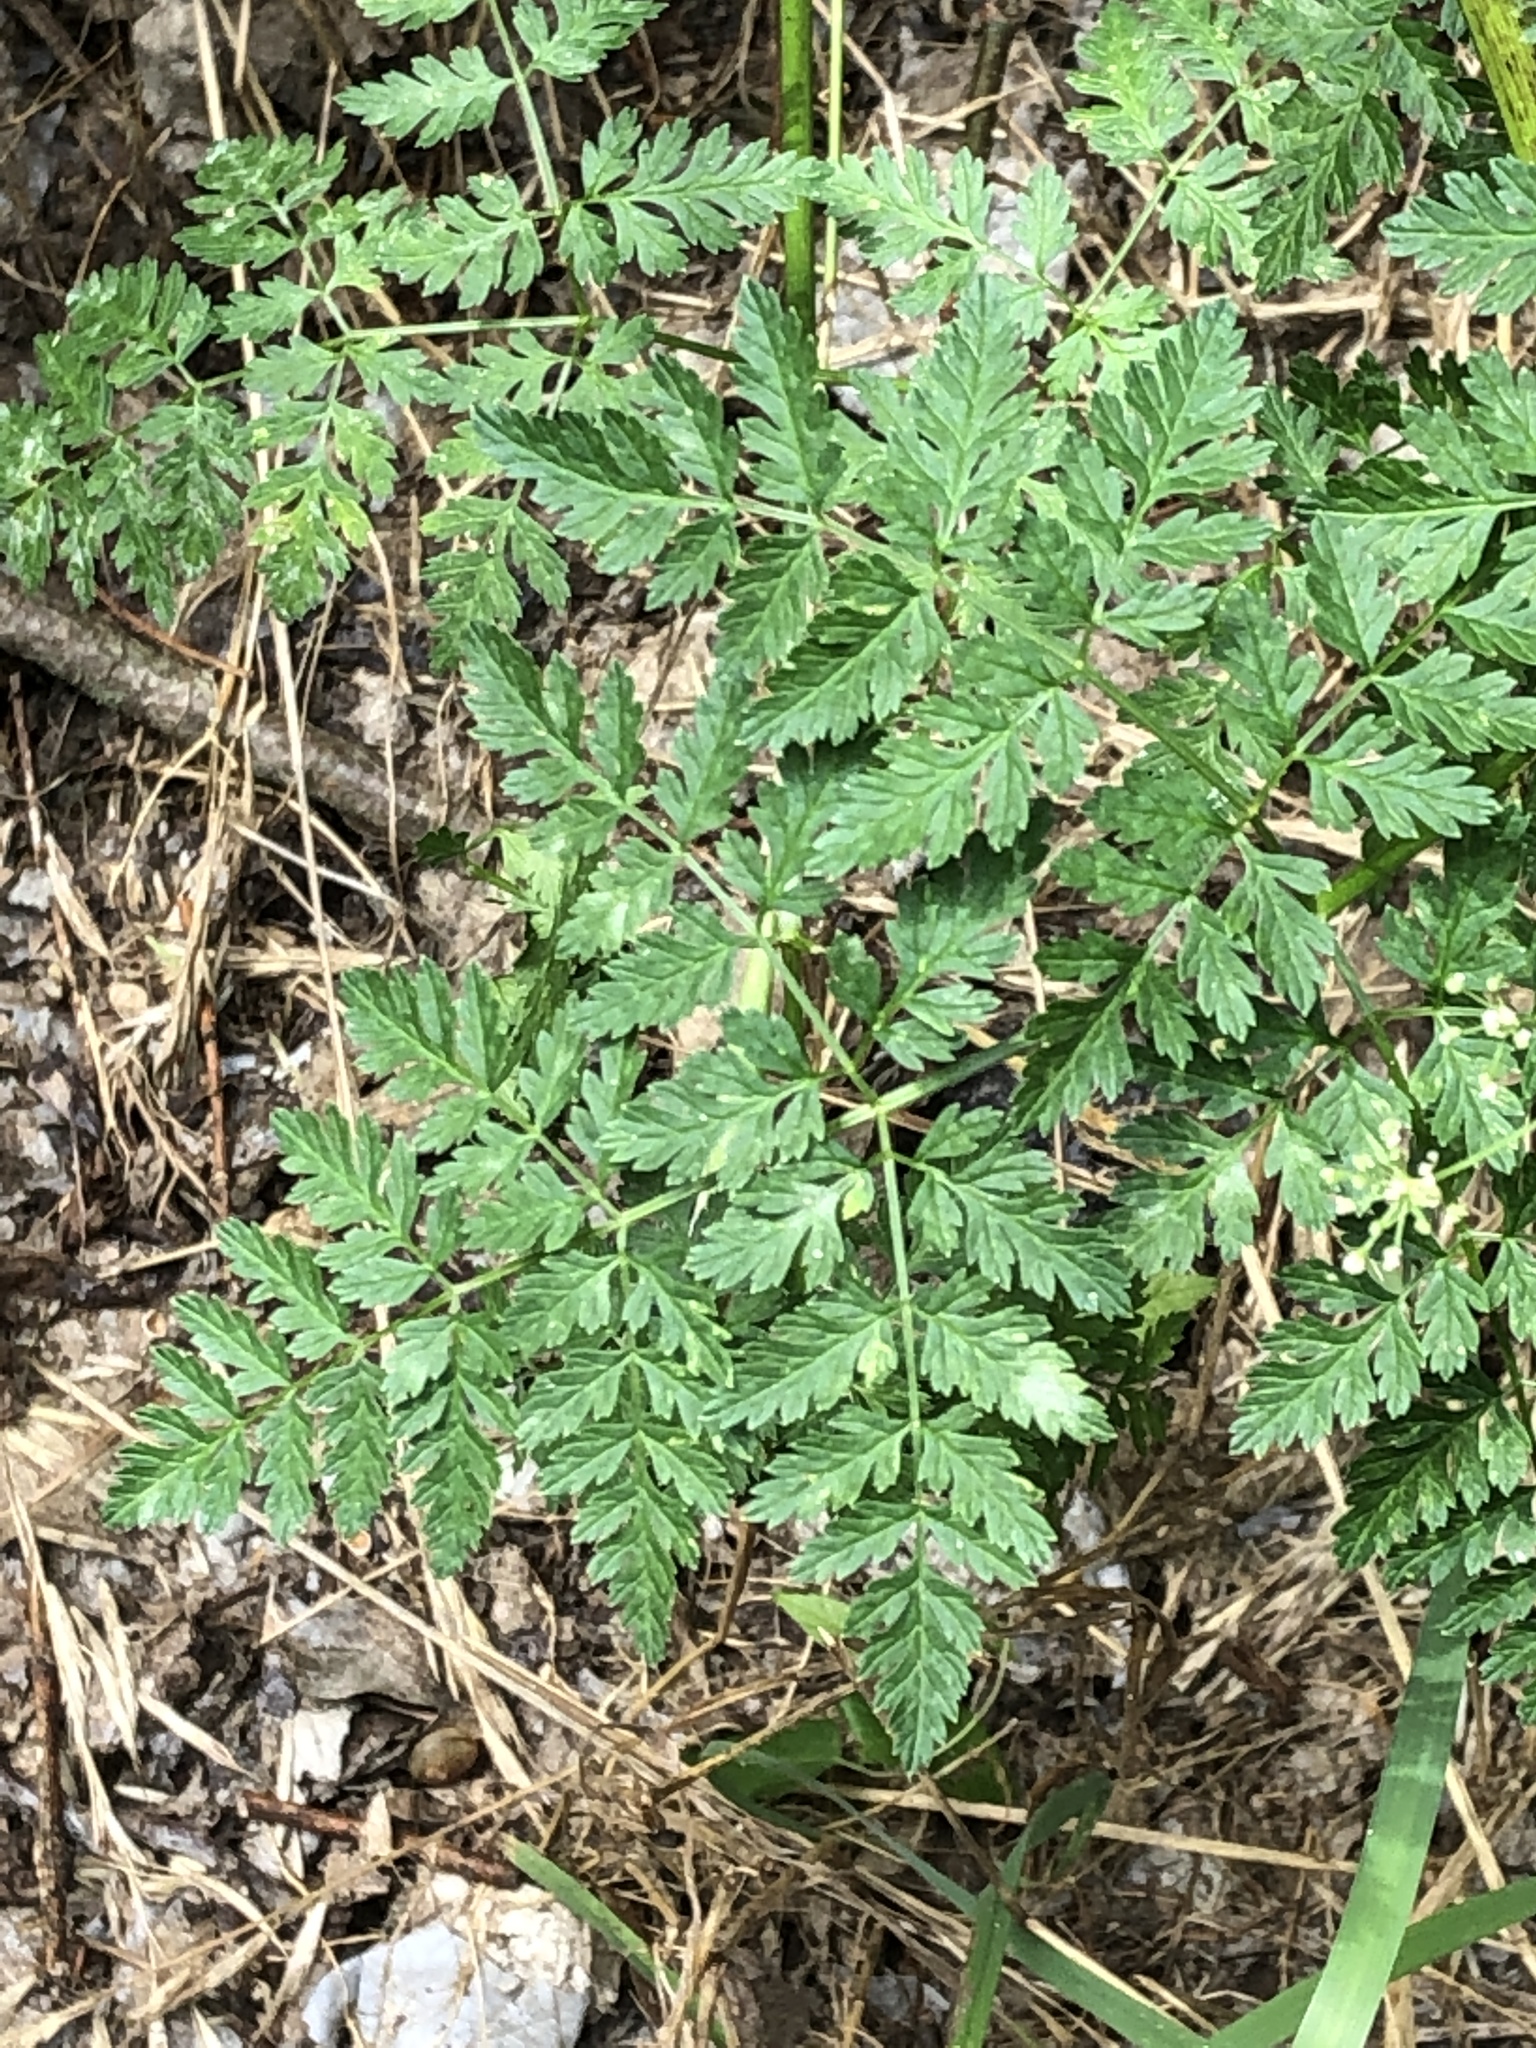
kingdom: Plantae
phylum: Tracheophyta
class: Magnoliopsida
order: Apiales
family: Apiaceae
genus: Cicuta
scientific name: Cicuta maculata
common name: Spotted cowbane
